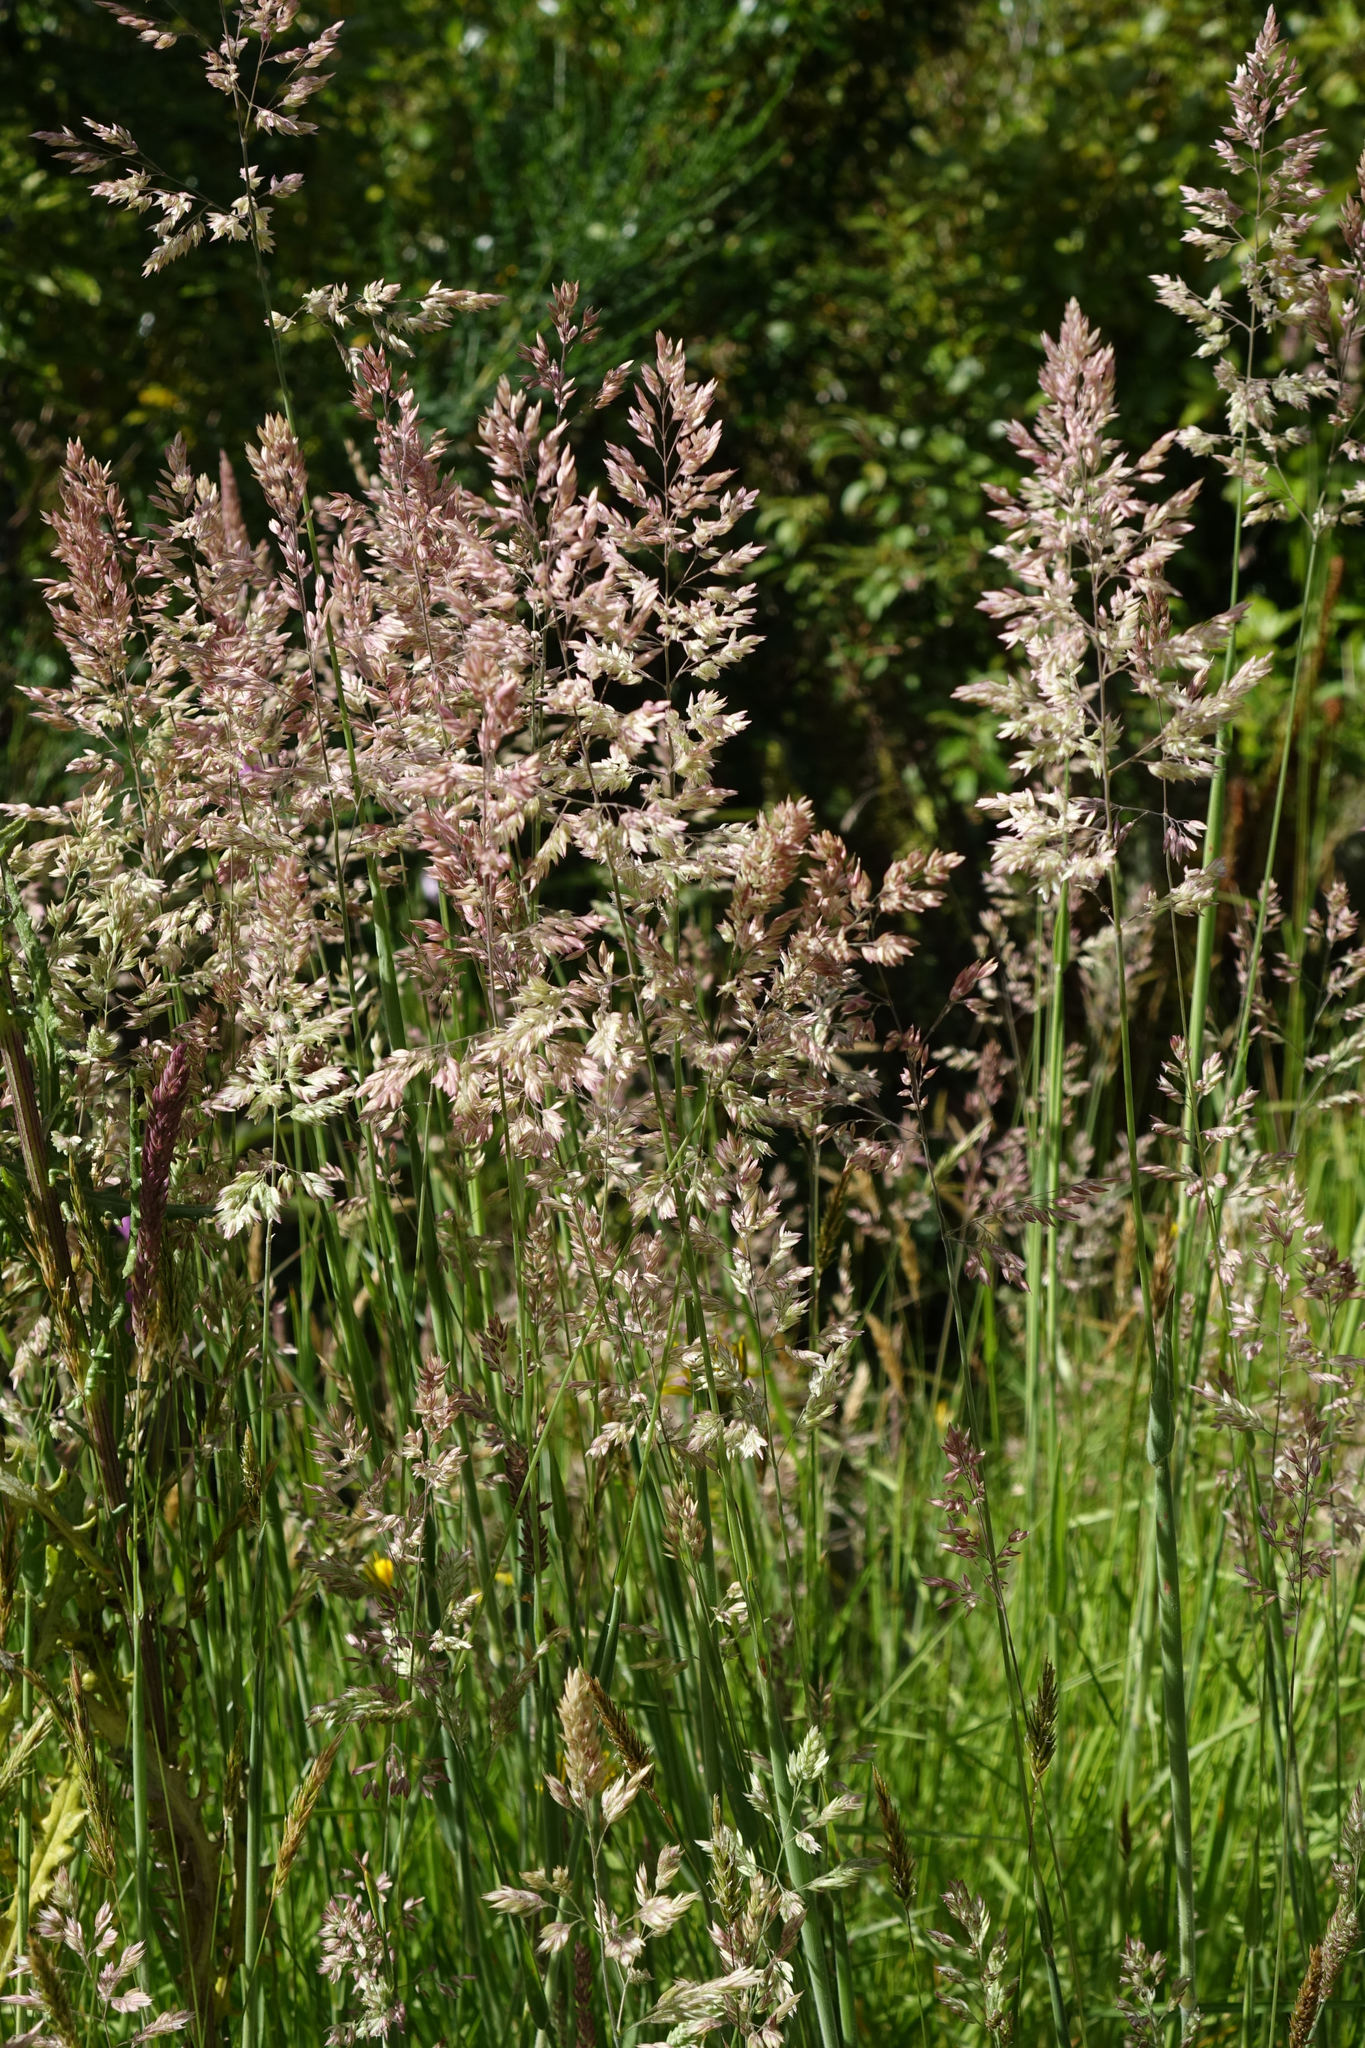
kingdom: Plantae
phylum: Tracheophyta
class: Liliopsida
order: Poales
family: Poaceae
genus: Holcus
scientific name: Holcus lanatus
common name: Yorkshire-fog
